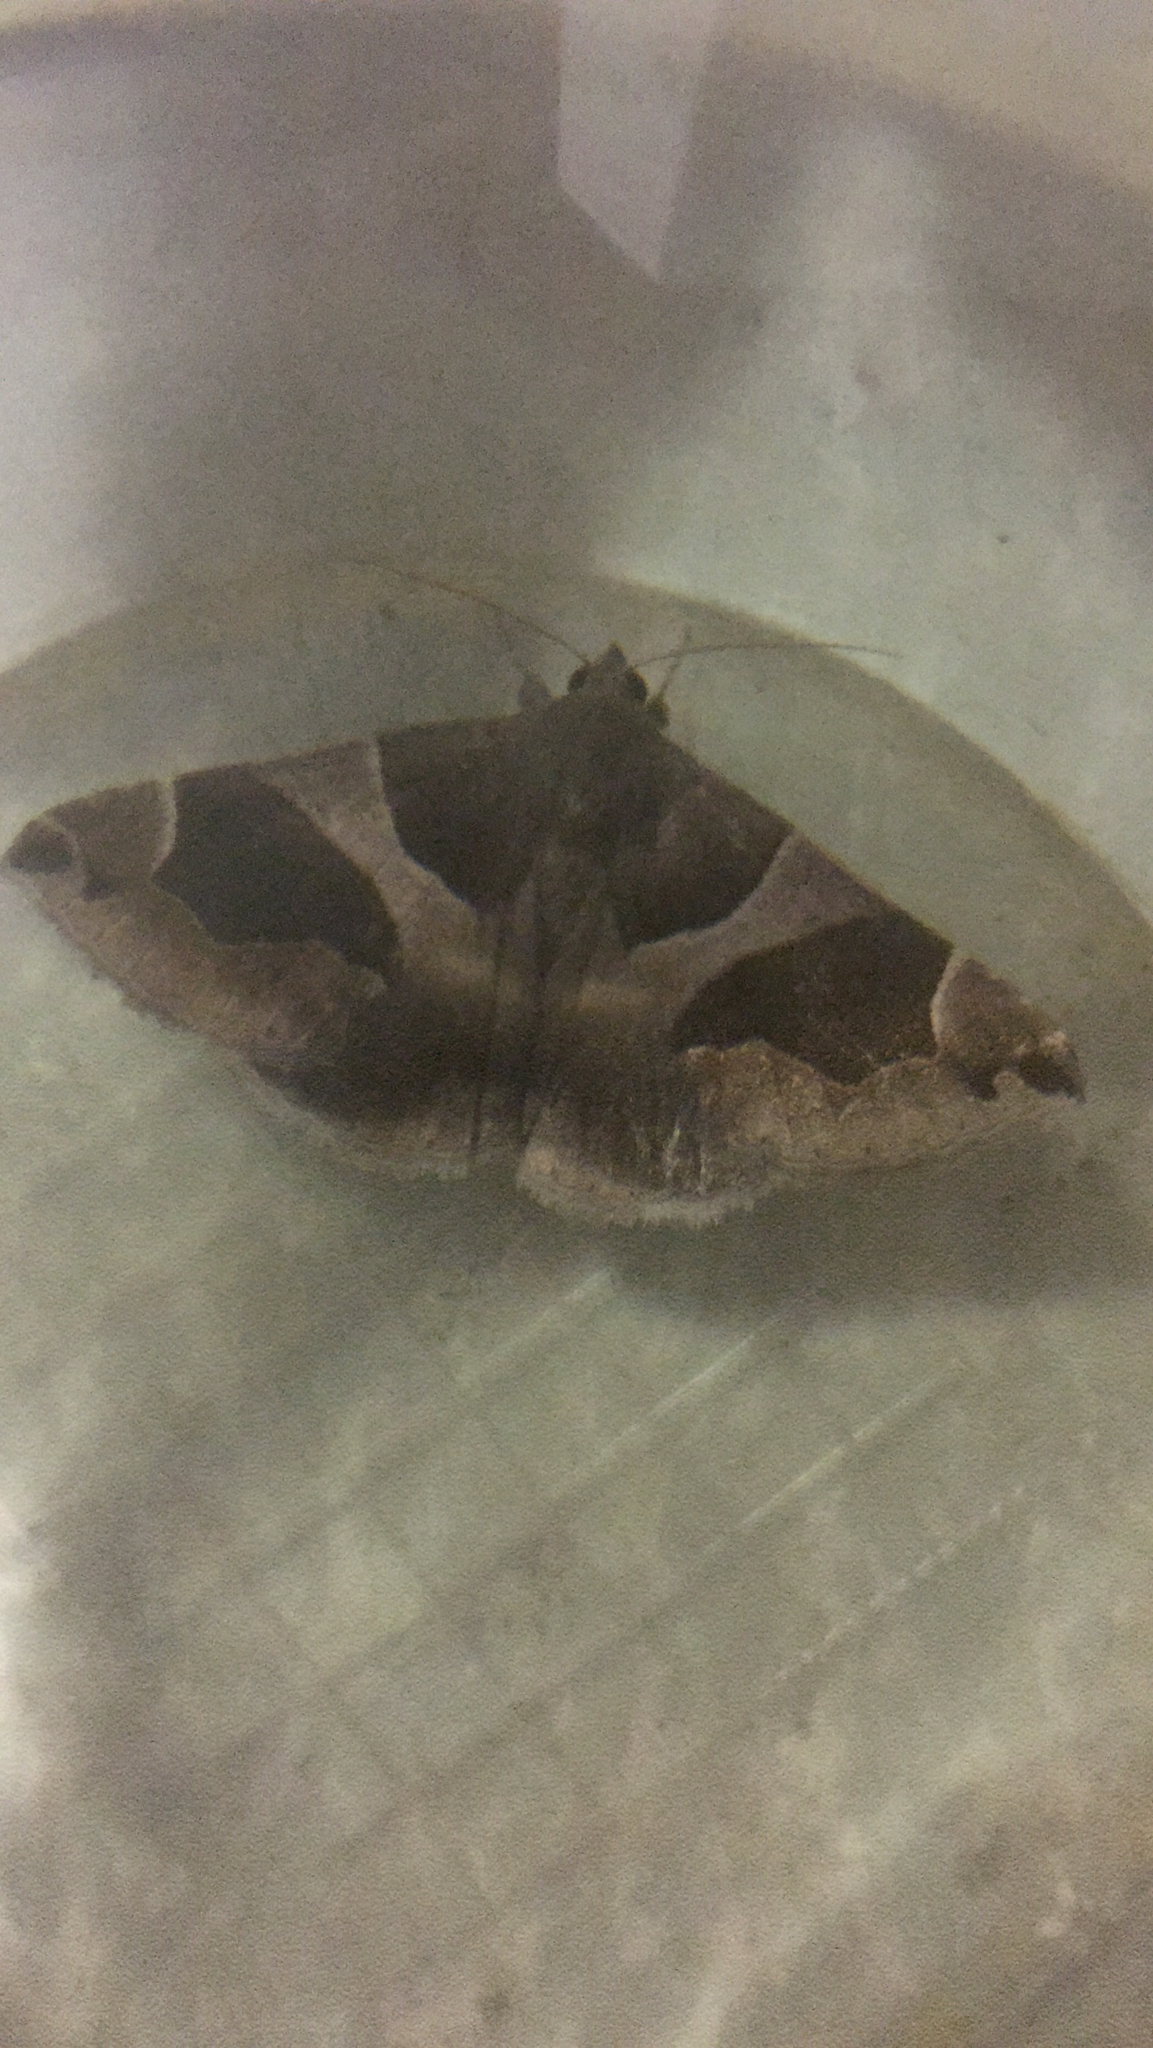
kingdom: Animalia
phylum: Arthropoda
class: Insecta
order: Lepidoptera
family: Erebidae
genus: Dysgonia
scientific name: Dysgonia algira
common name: Passenger
